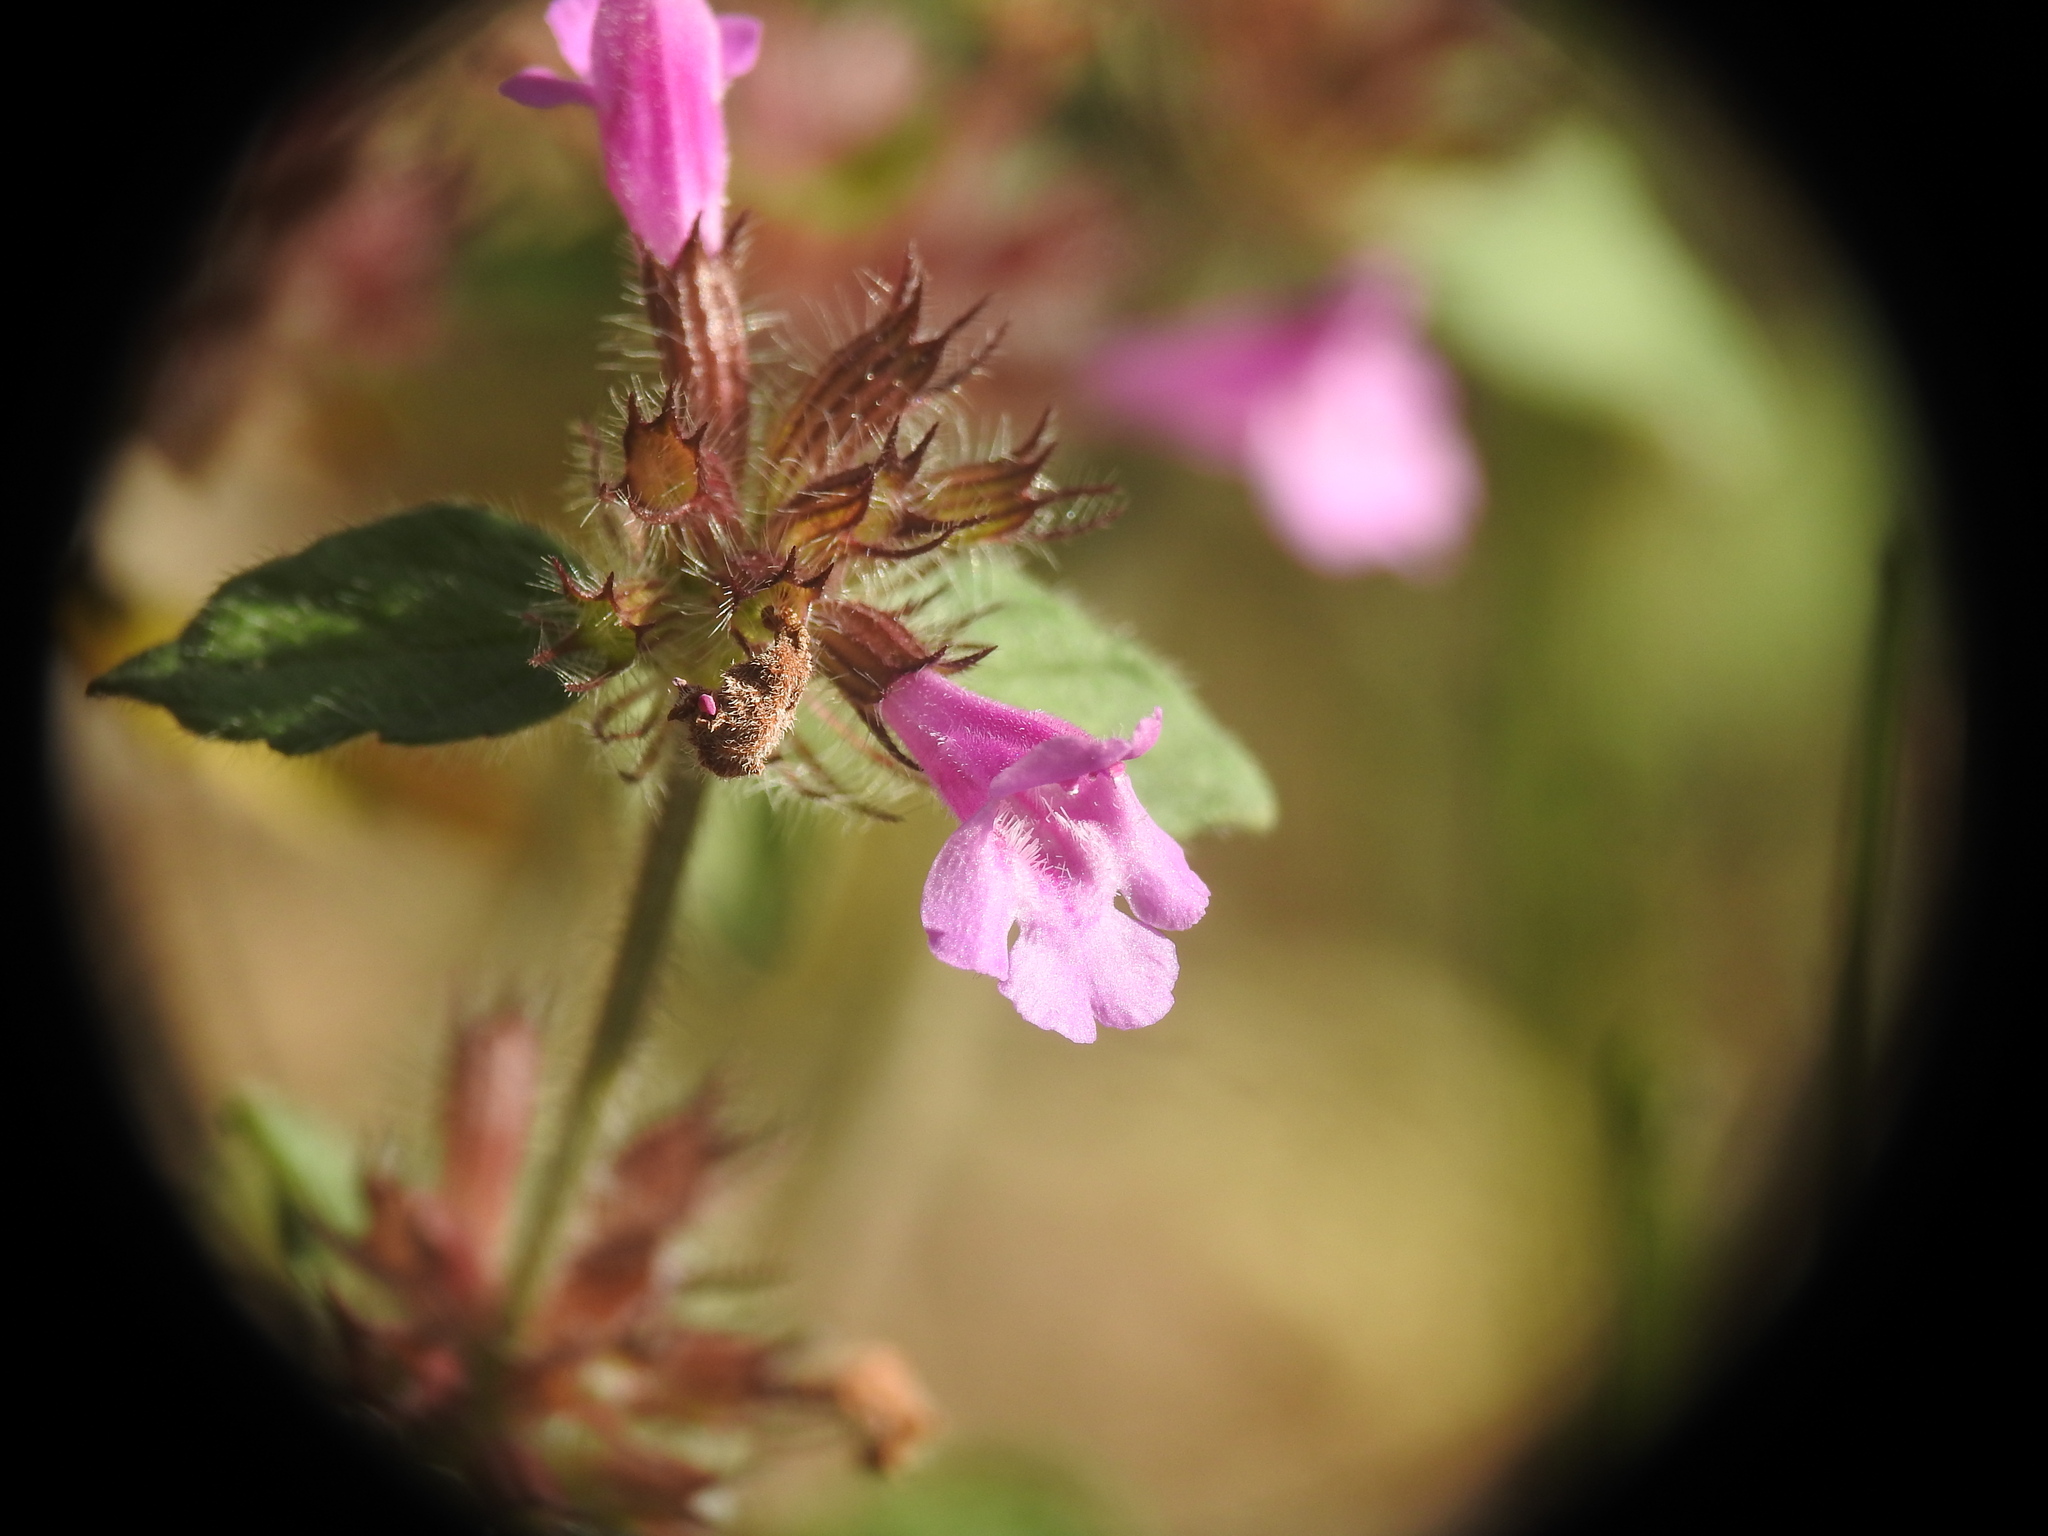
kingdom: Plantae
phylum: Tracheophyta
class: Magnoliopsida
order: Lamiales
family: Lamiaceae
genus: Clinopodium
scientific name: Clinopodium vulgare
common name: Wild basil
